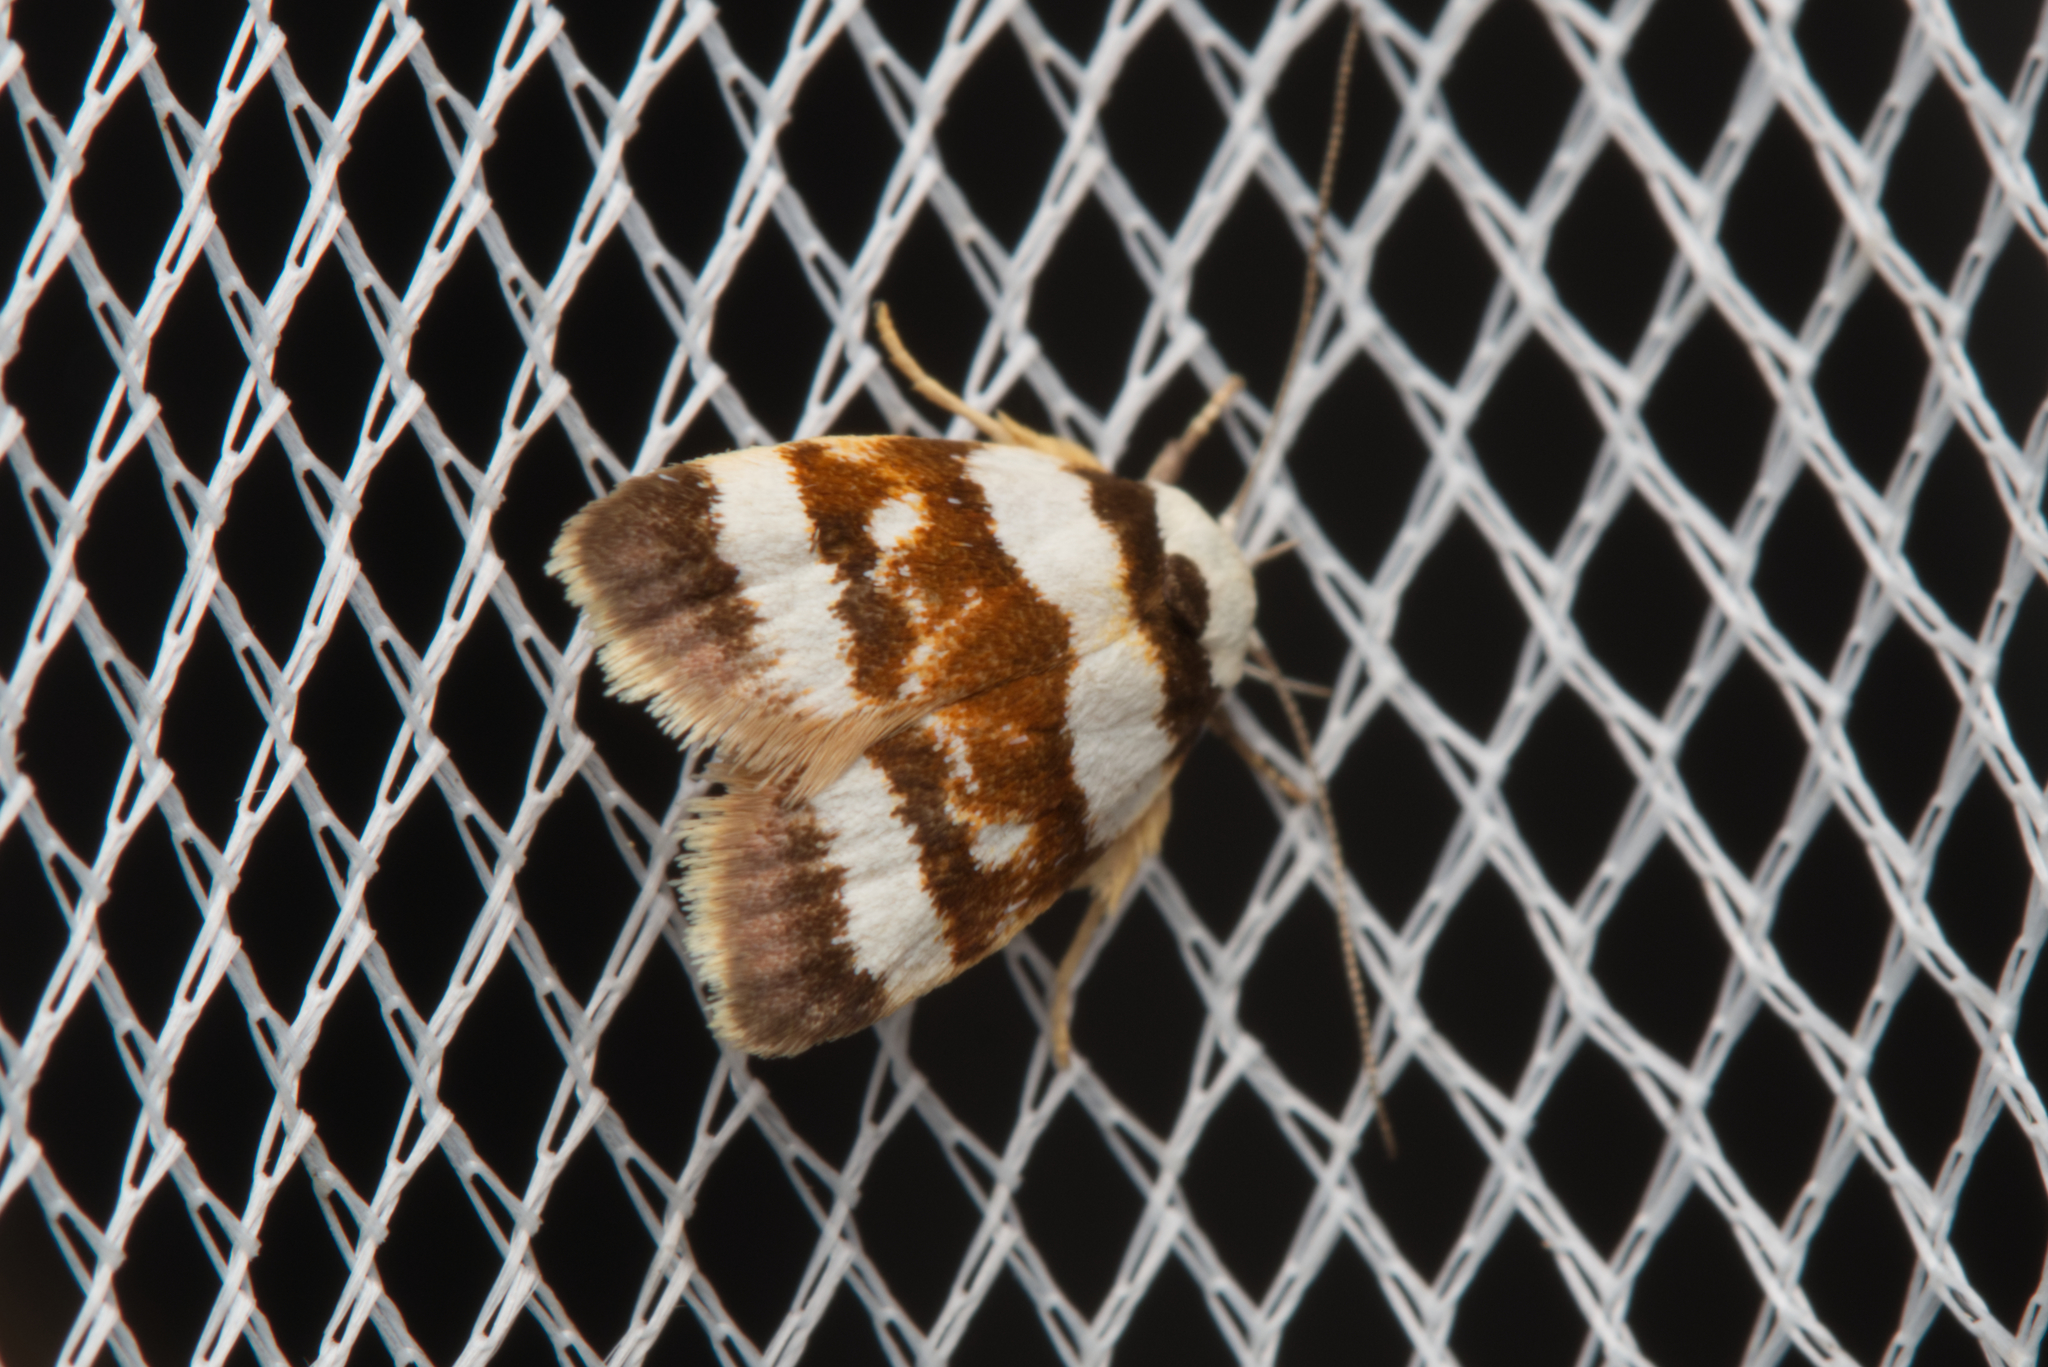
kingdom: Animalia
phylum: Arthropoda
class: Insecta
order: Lepidoptera
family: Oecophoridae
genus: Catacometes
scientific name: Catacometes phanozona
